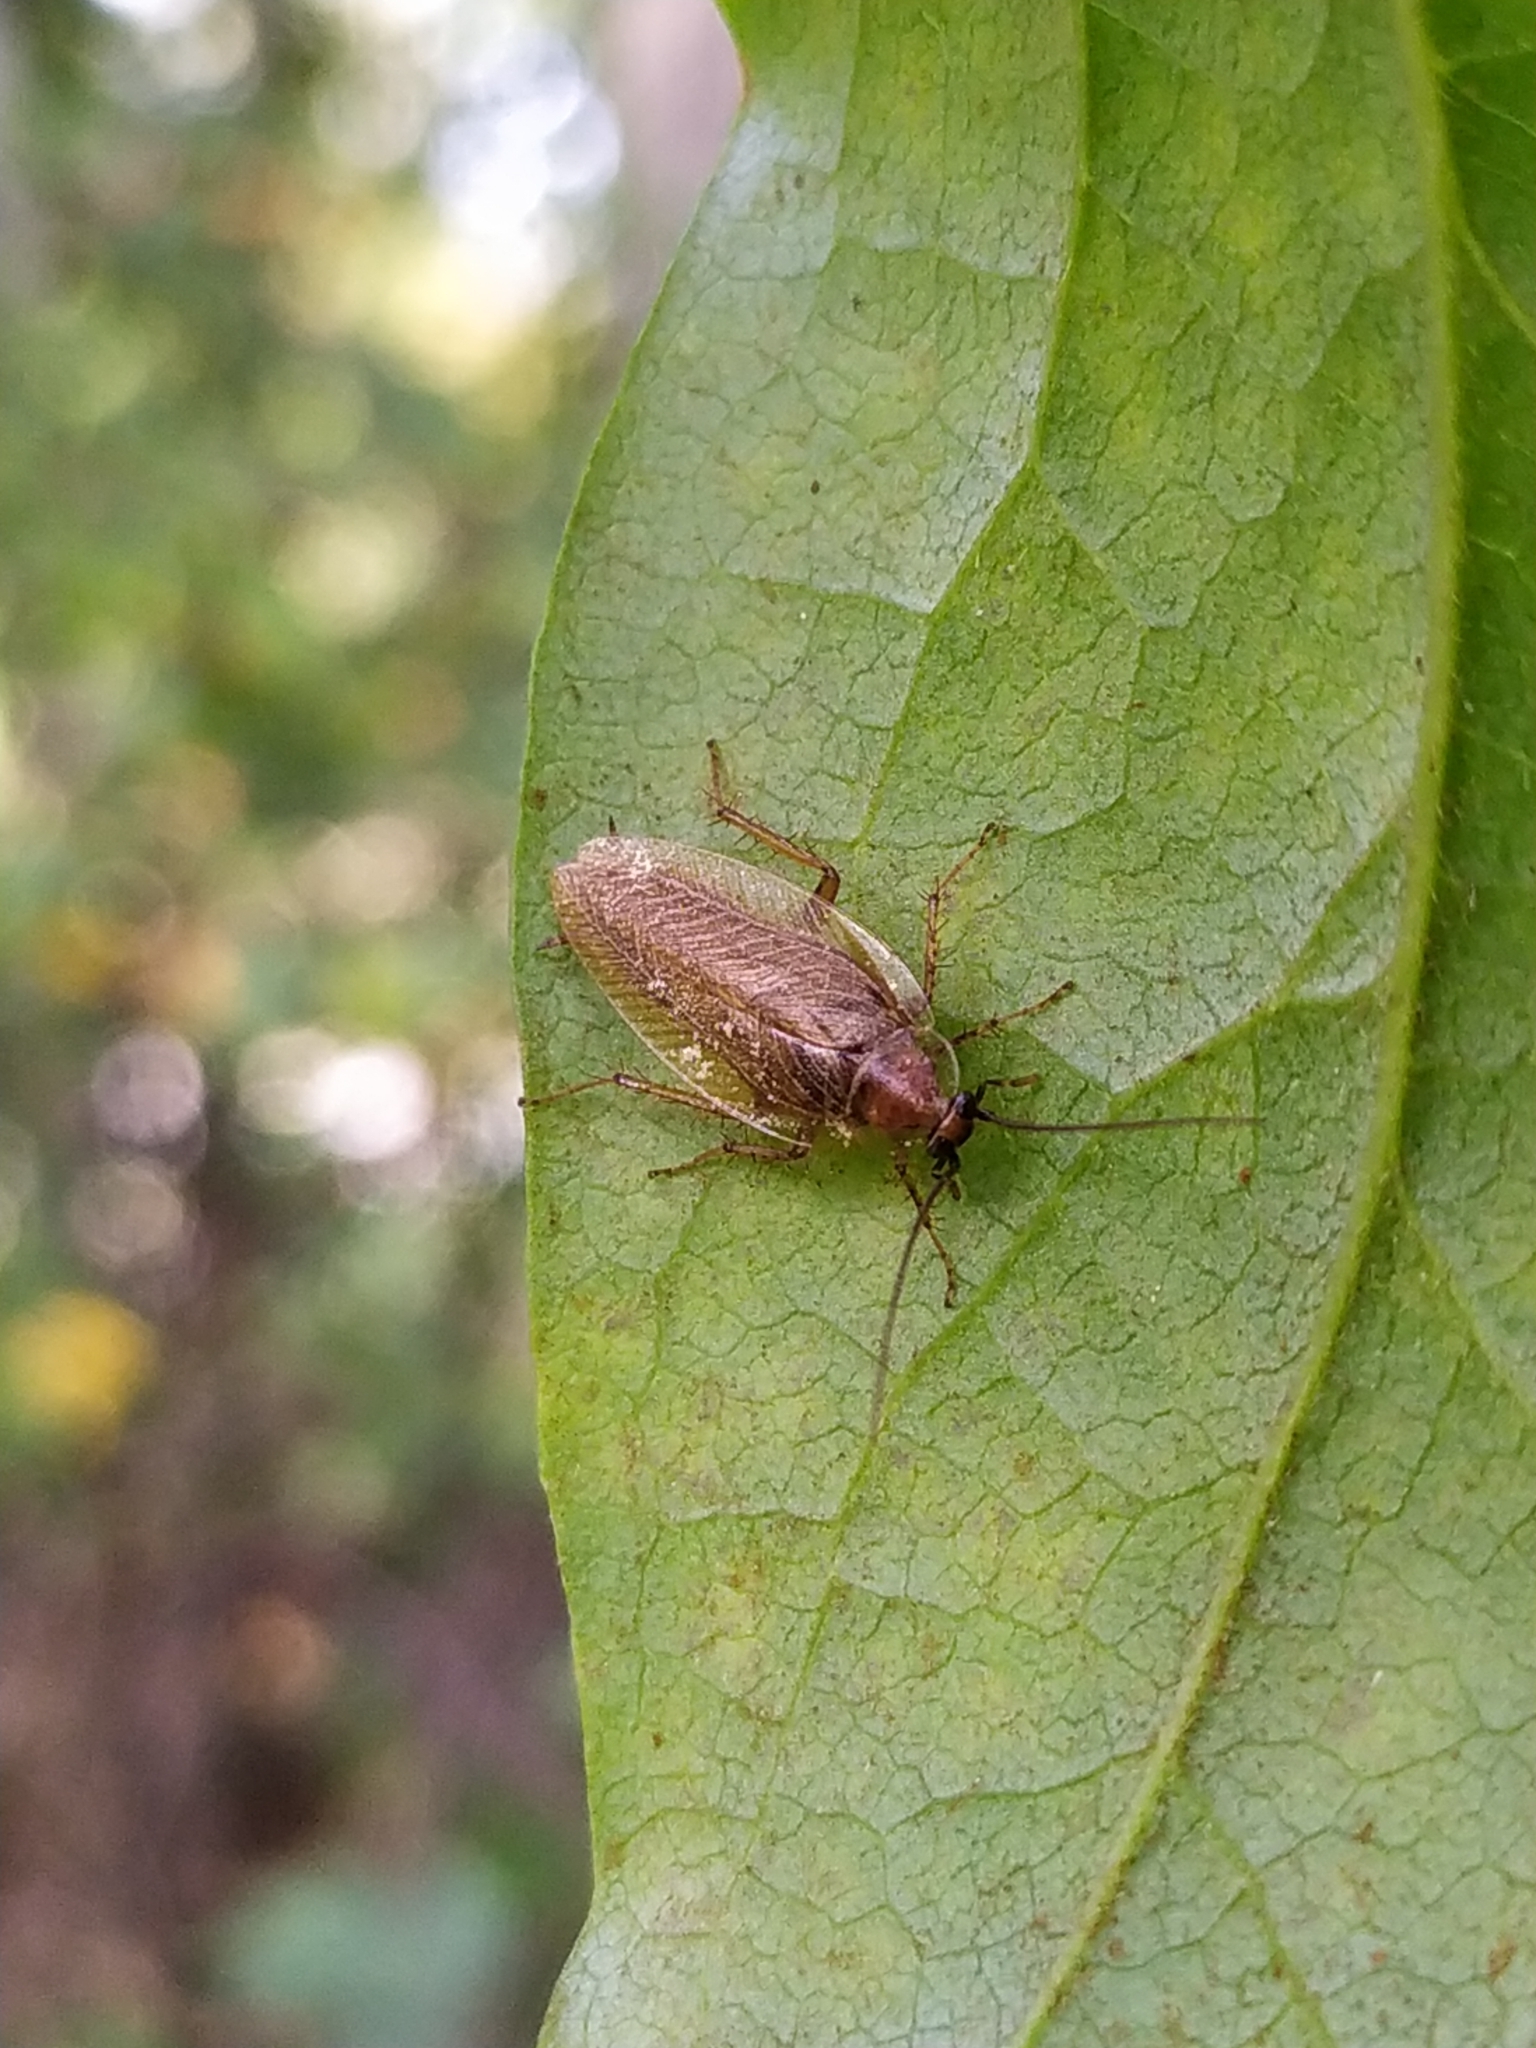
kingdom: Animalia
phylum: Arthropoda
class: Insecta
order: Blattodea
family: Ectobiidae
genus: Ectobius
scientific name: Ectobius vittiventris
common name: Garden cockroach
